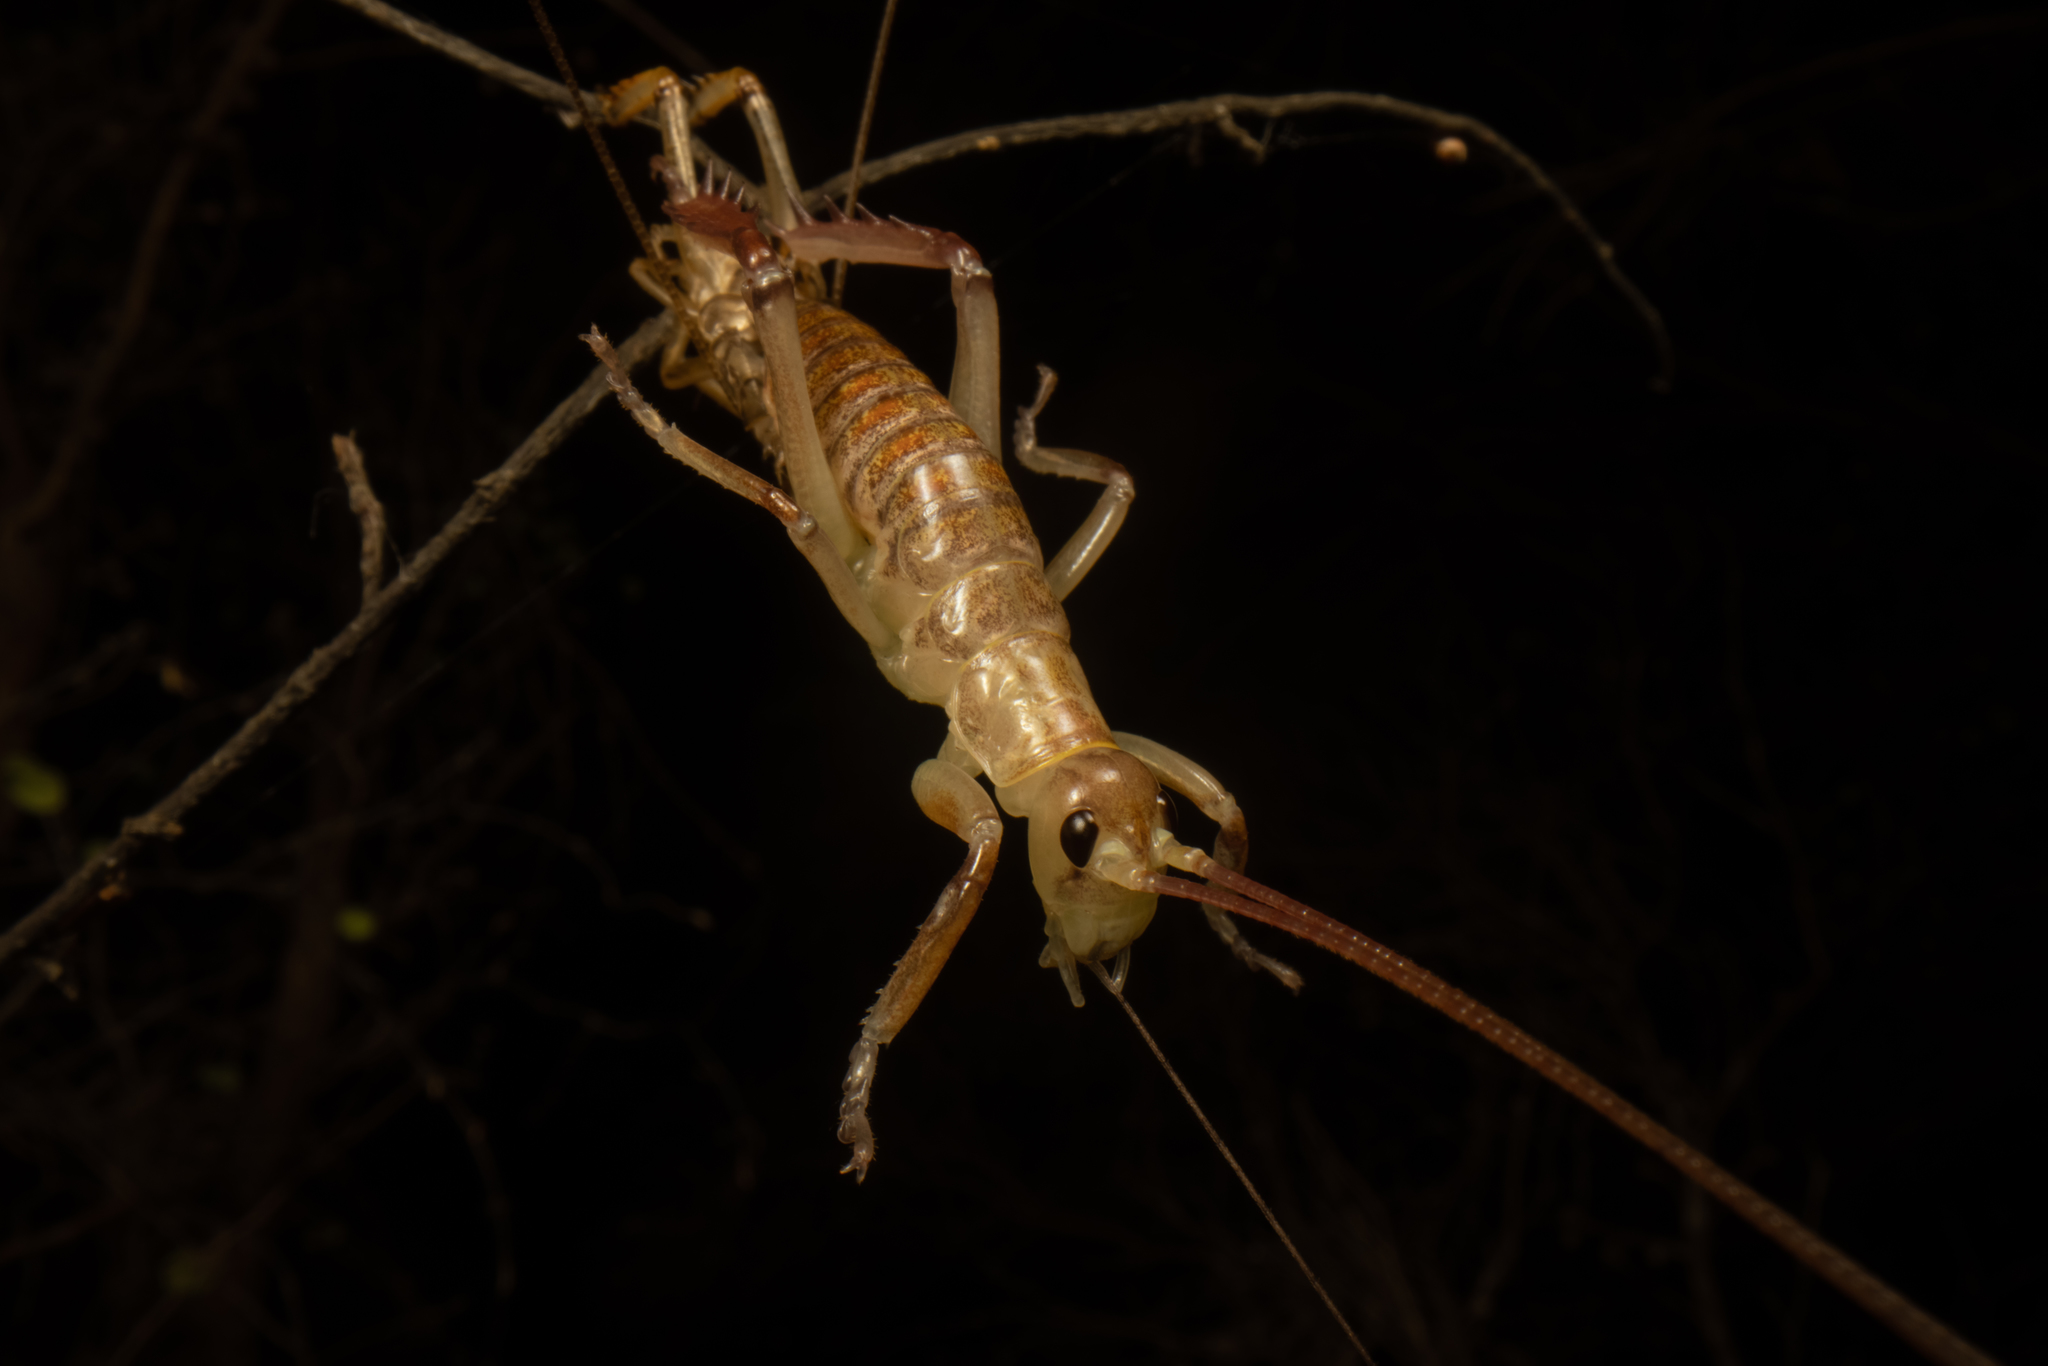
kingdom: Animalia
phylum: Arthropoda
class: Insecta
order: Orthoptera
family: Anostostomatidae
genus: Hemideina
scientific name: Hemideina thoracica
